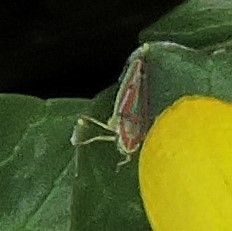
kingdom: Animalia
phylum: Arthropoda
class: Insecta
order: Hemiptera
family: Cicadellidae
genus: Graphocephala
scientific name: Graphocephala versuta
